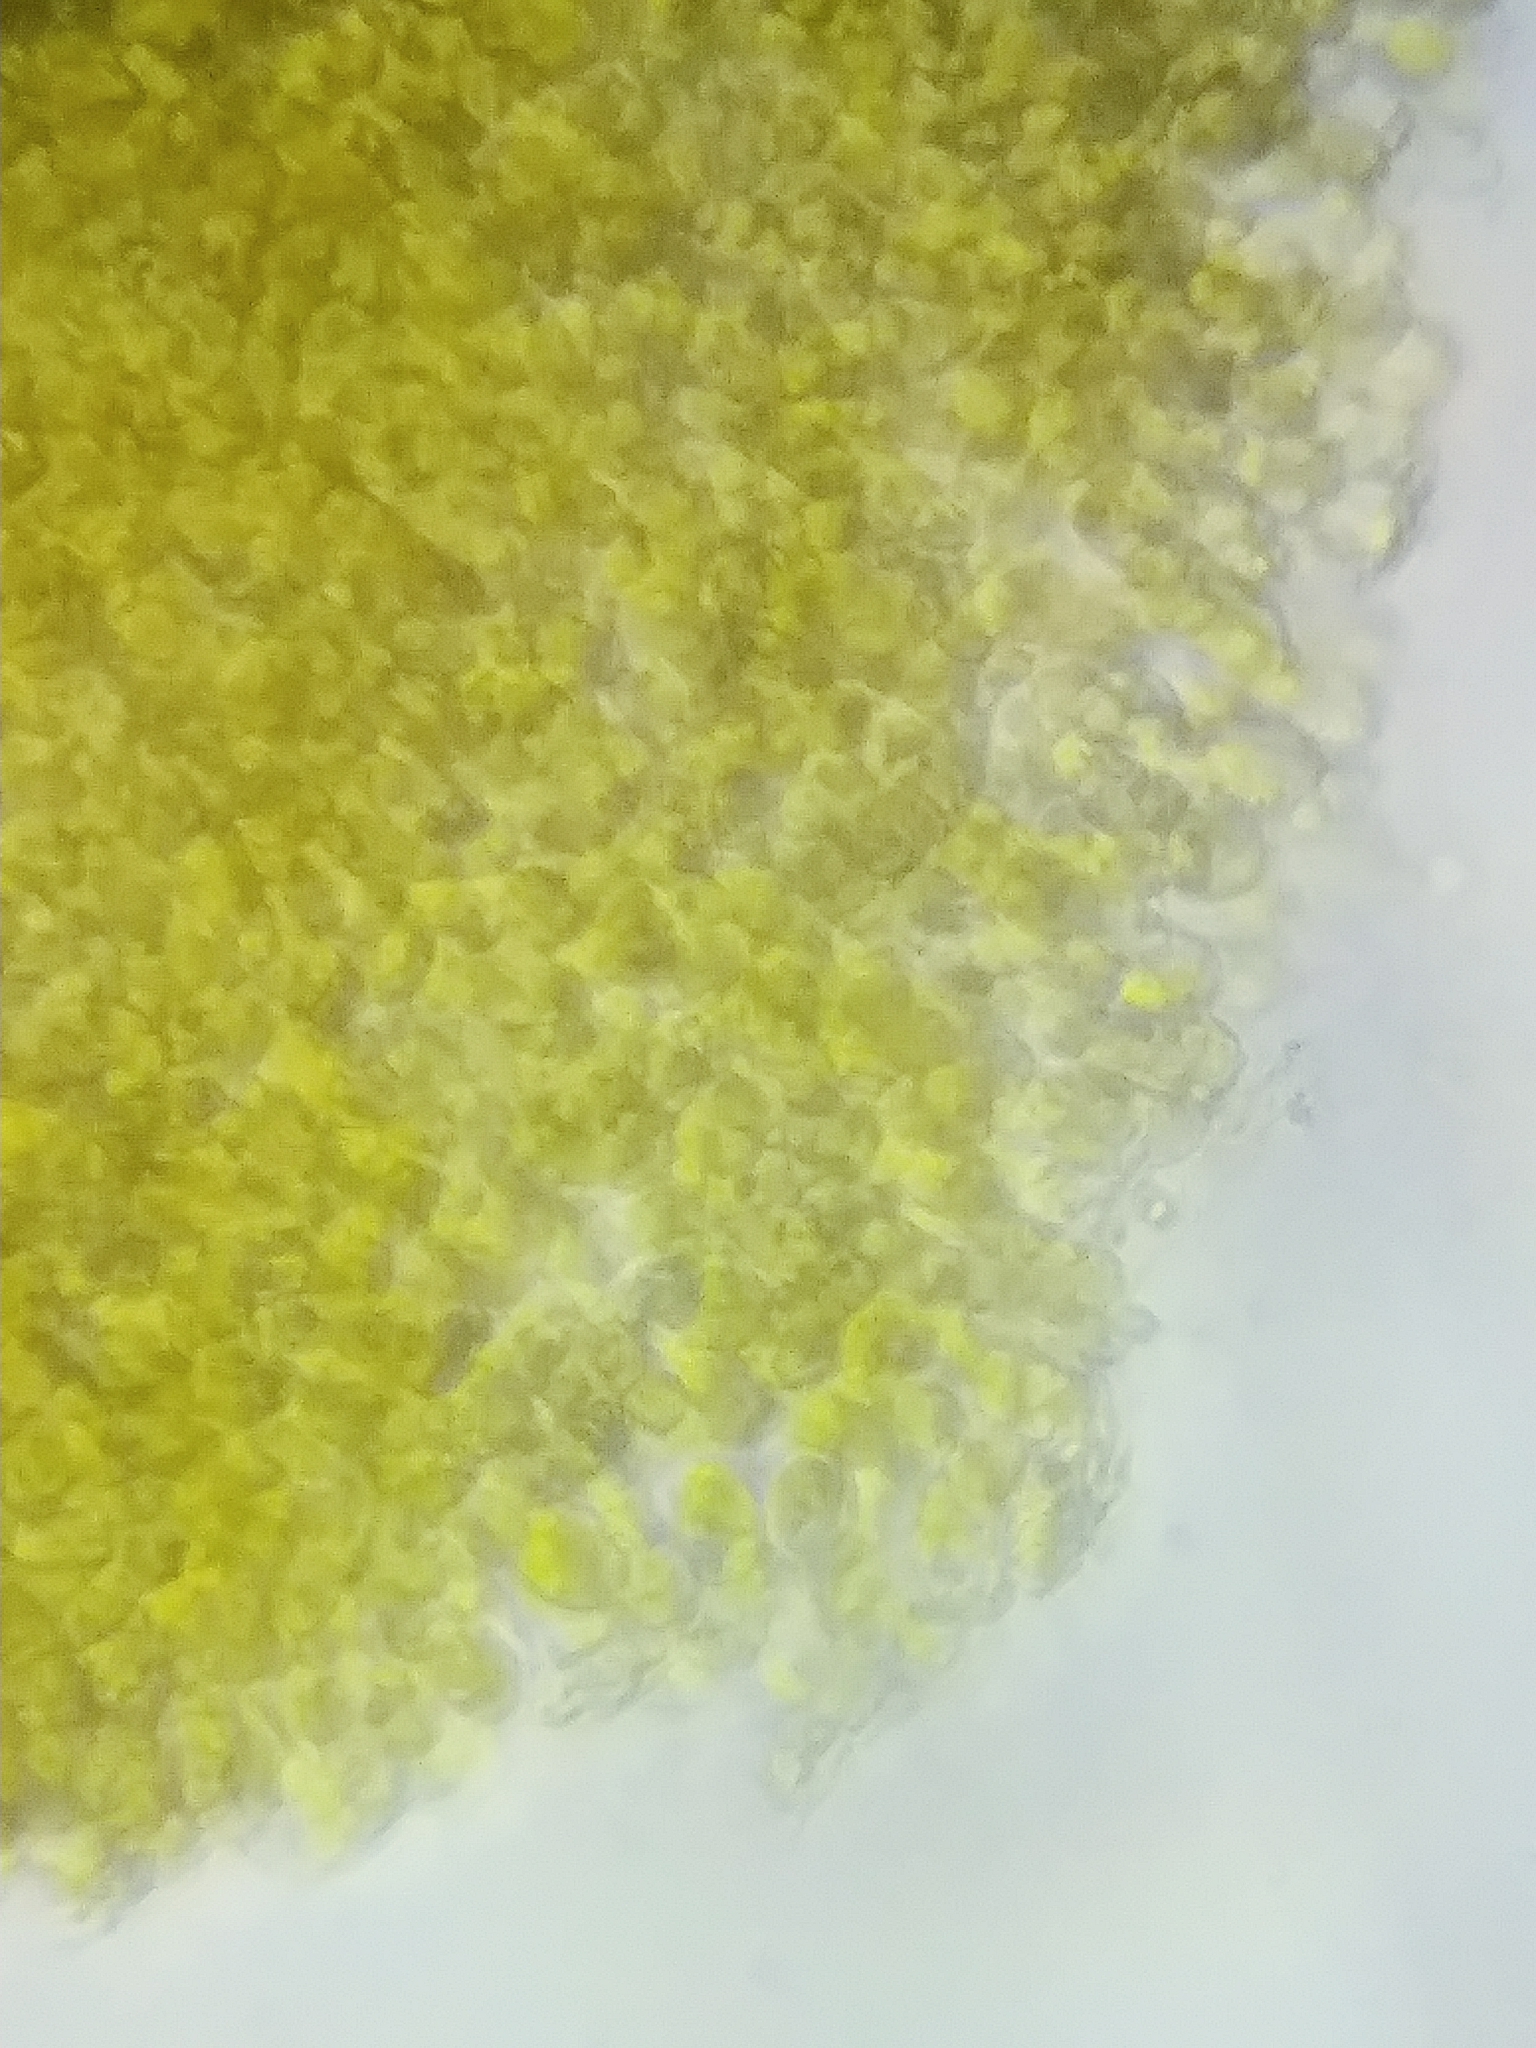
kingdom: Fungi
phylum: Basidiomycota
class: Agaricomycetes
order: Agaricales
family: Cortinariaceae
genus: Cortinarius
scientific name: Cortinarius malicorius
